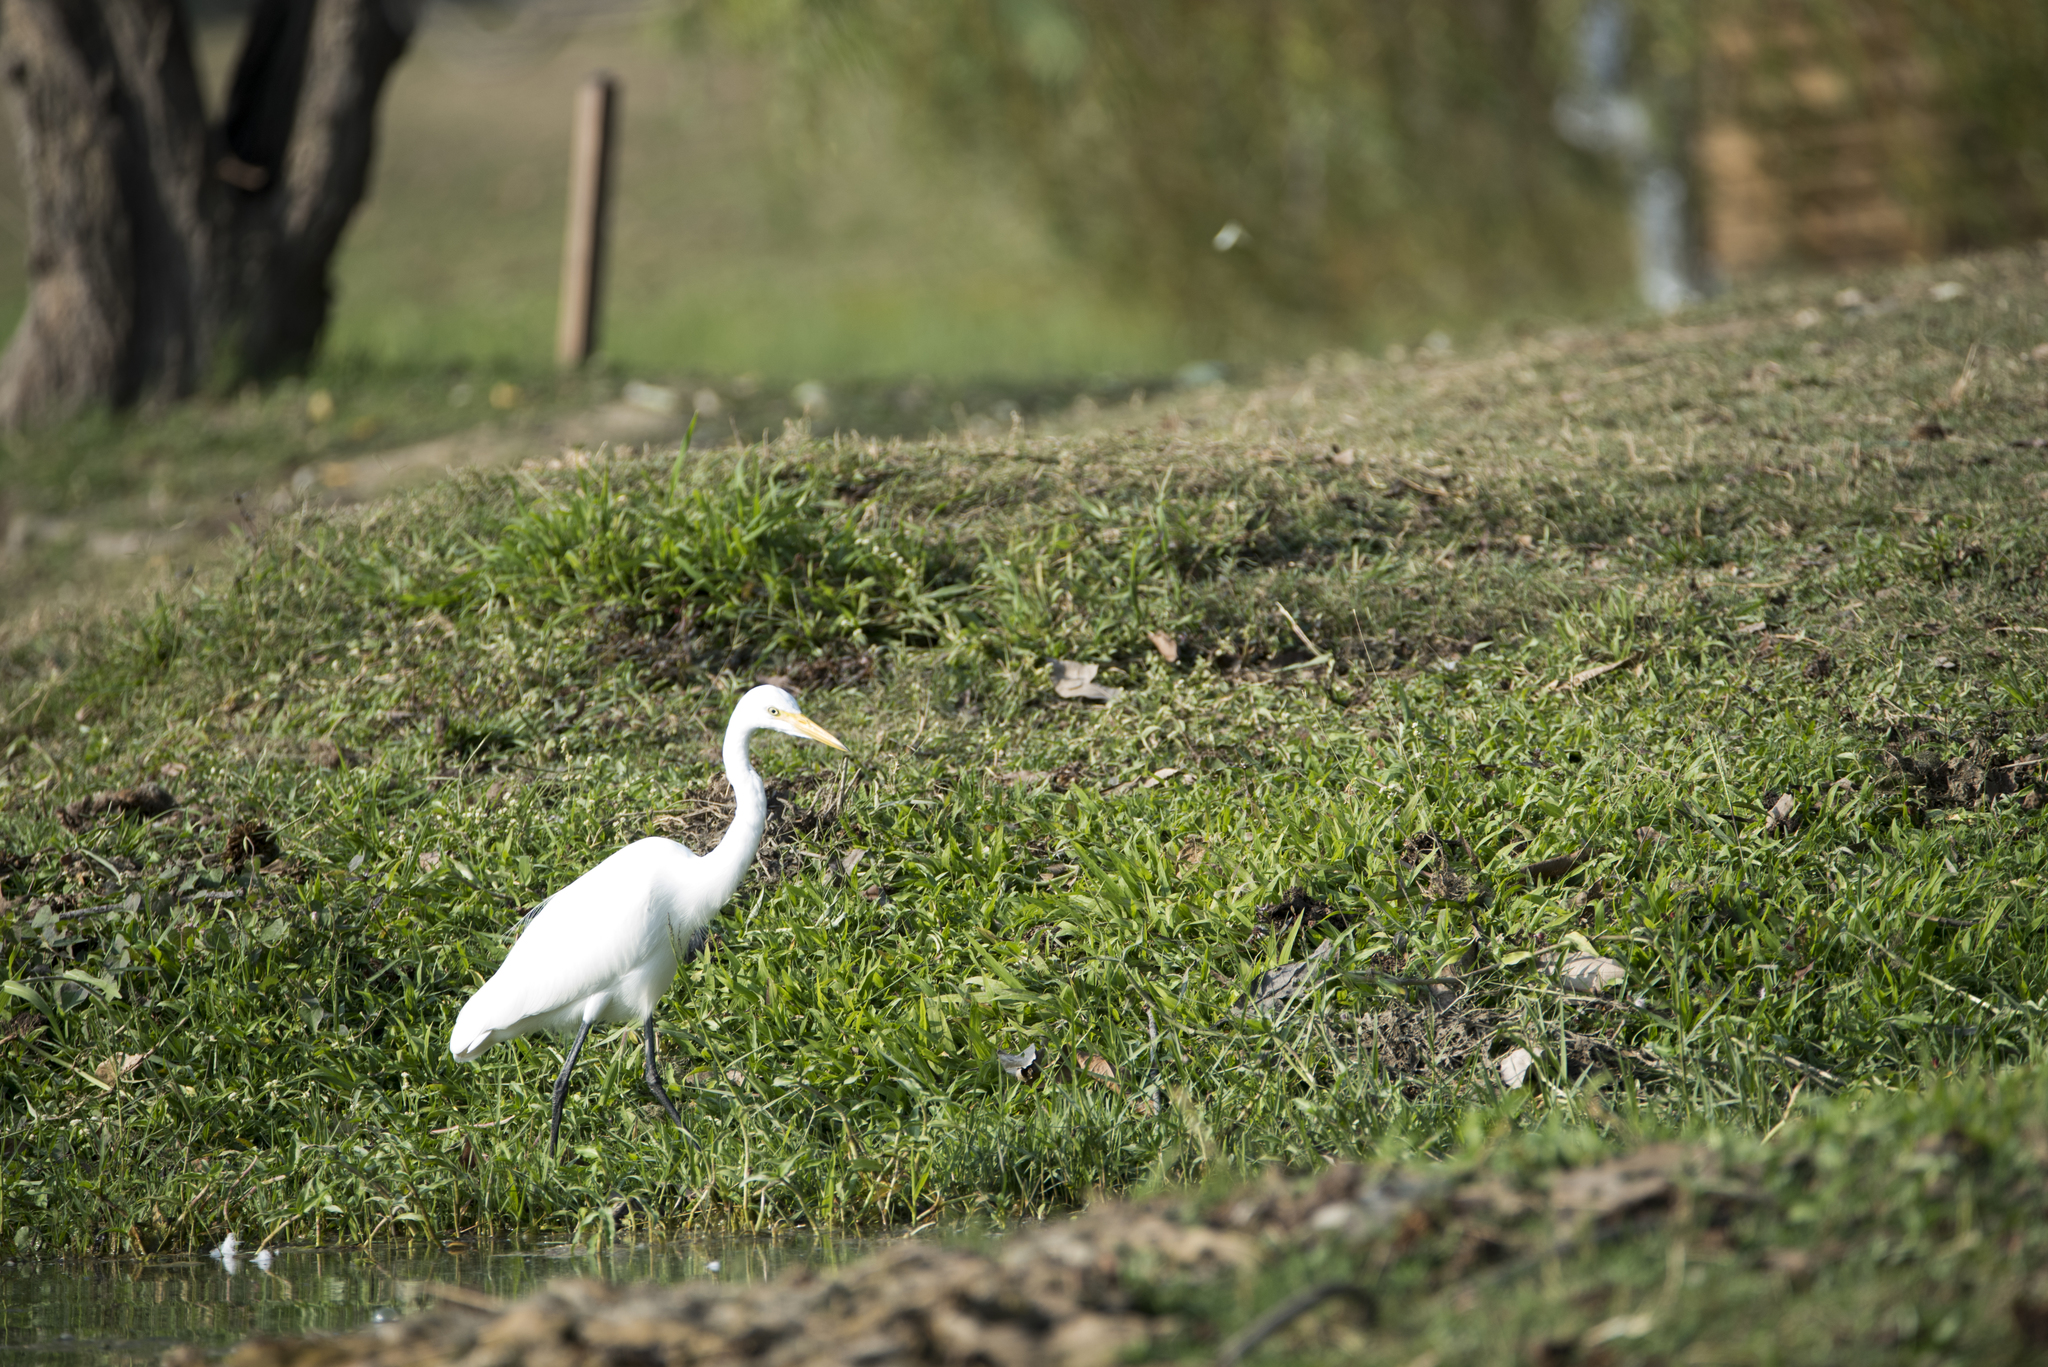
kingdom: Animalia
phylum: Chordata
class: Aves
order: Pelecaniformes
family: Ardeidae
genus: Egretta
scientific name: Egretta intermedia
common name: Intermediate egret
